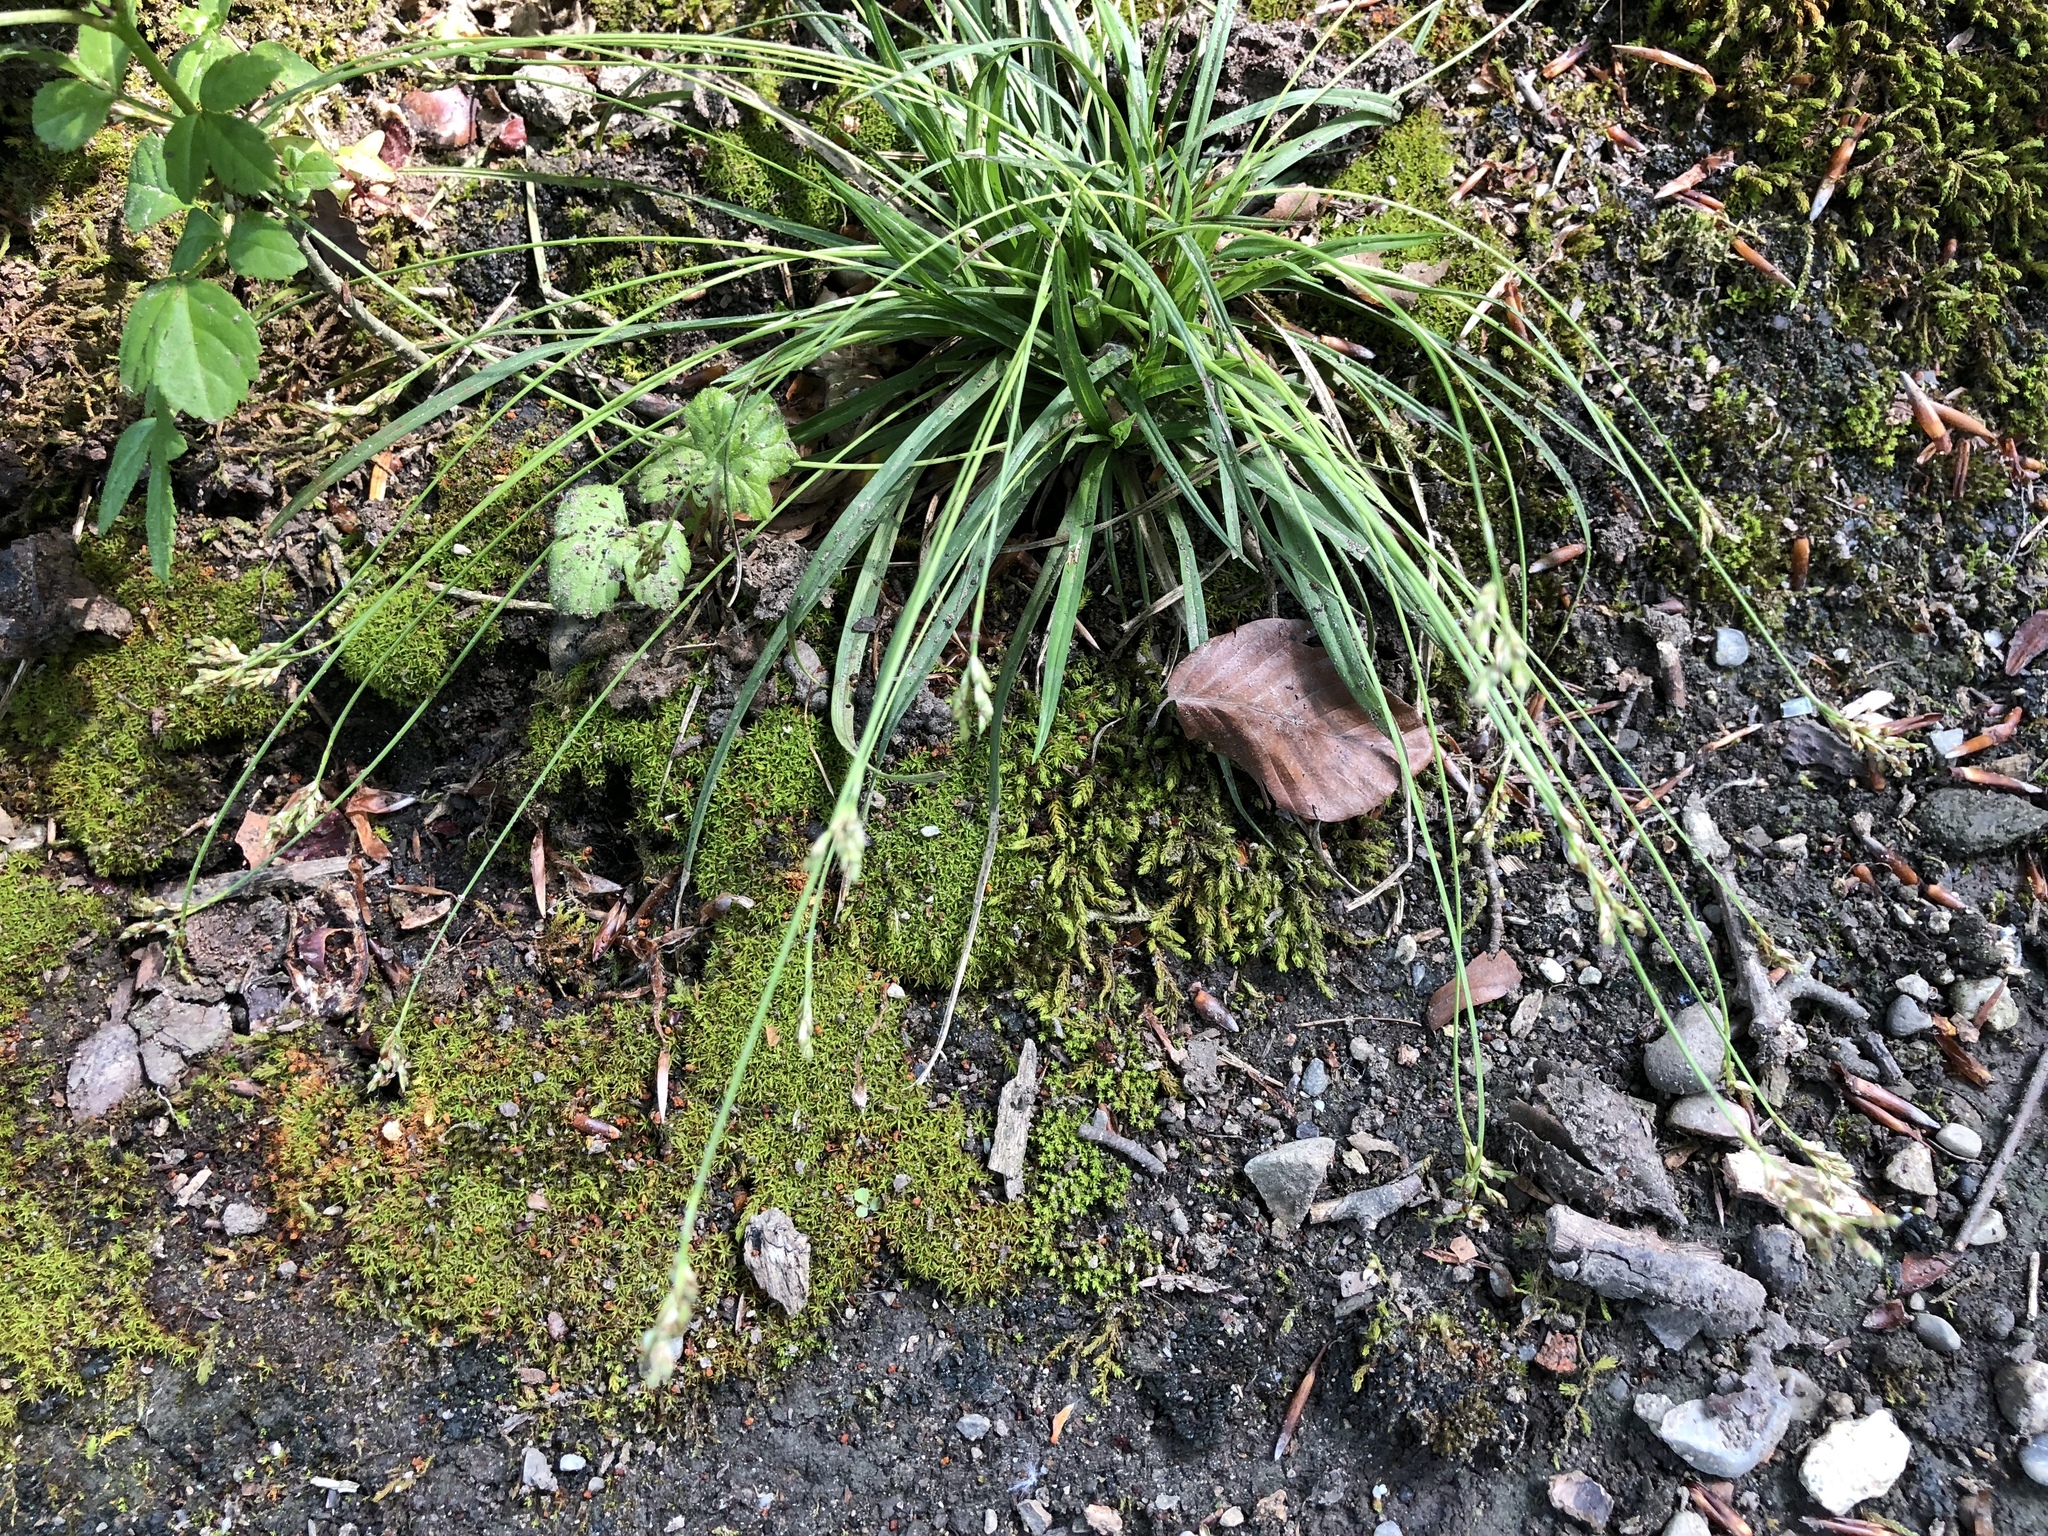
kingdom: Plantae
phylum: Tracheophyta
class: Liliopsida
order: Poales
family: Cyperaceae
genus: Carex
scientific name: Carex digitata
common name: Fingered sedge
